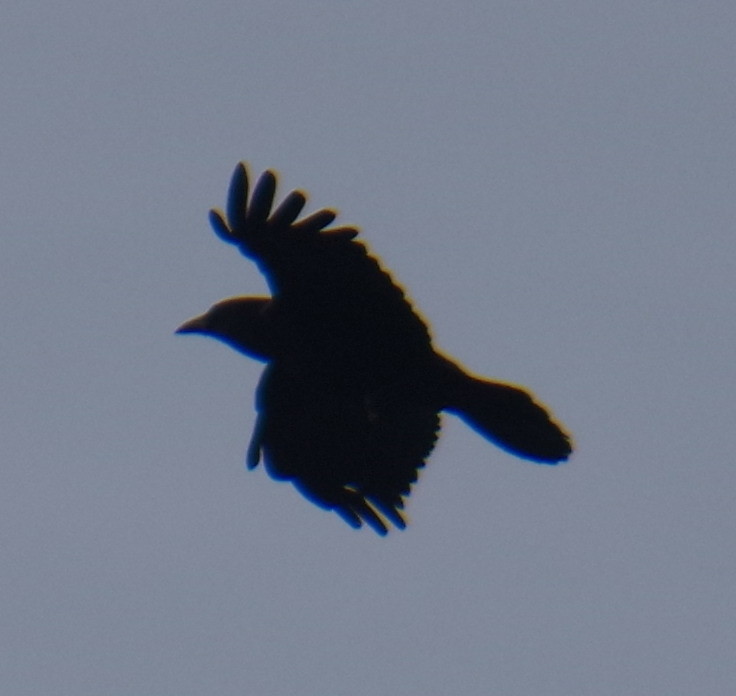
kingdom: Animalia
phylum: Chordata
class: Aves
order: Passeriformes
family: Corvidae
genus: Corvus
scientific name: Corvus brachyrhynchos
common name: American crow
